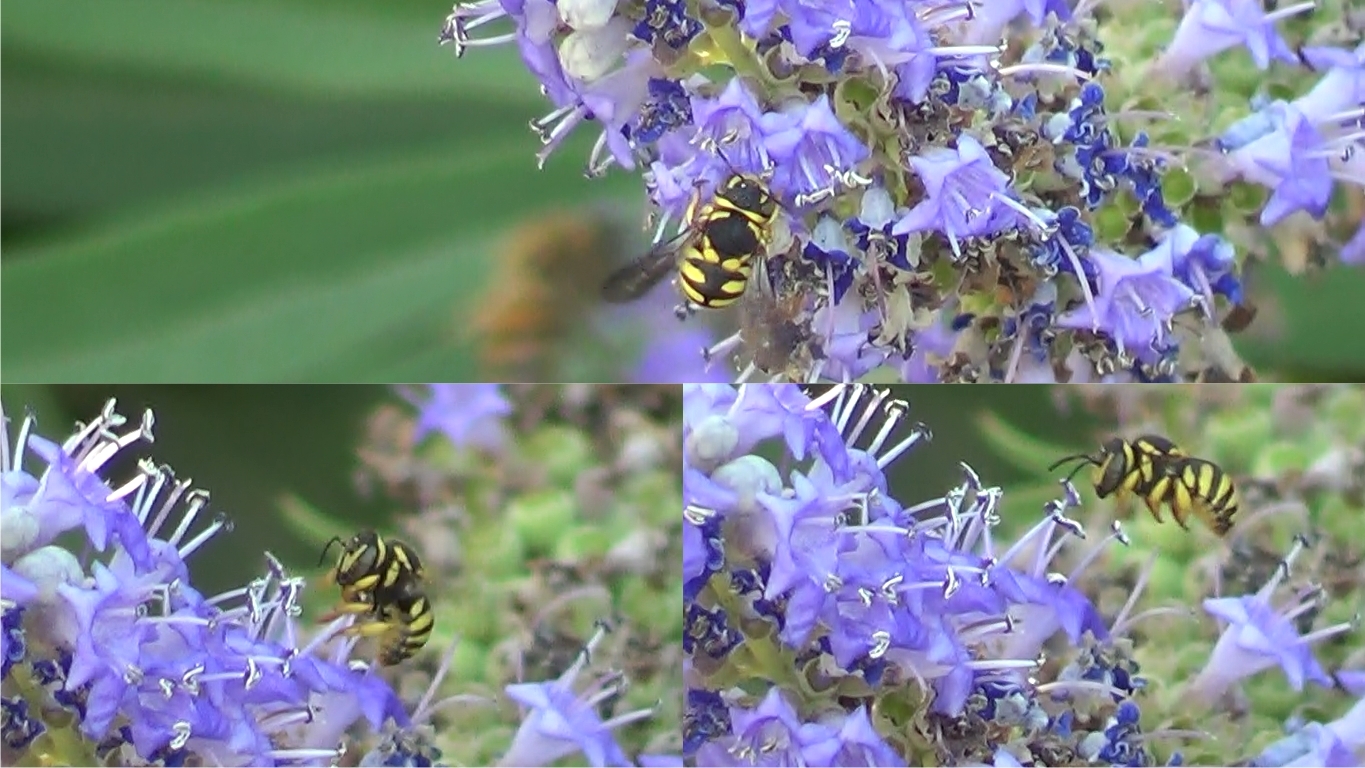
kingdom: Animalia
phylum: Arthropoda
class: Insecta
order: Hymenoptera
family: Megachilidae
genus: Anthidiellum
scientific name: Anthidiellum strigatum
